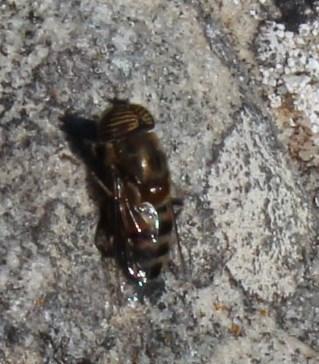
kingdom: Animalia
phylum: Arthropoda
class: Insecta
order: Diptera
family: Syrphidae
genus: Eristalinus
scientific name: Eristalinus taeniops
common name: Syrphid fly
